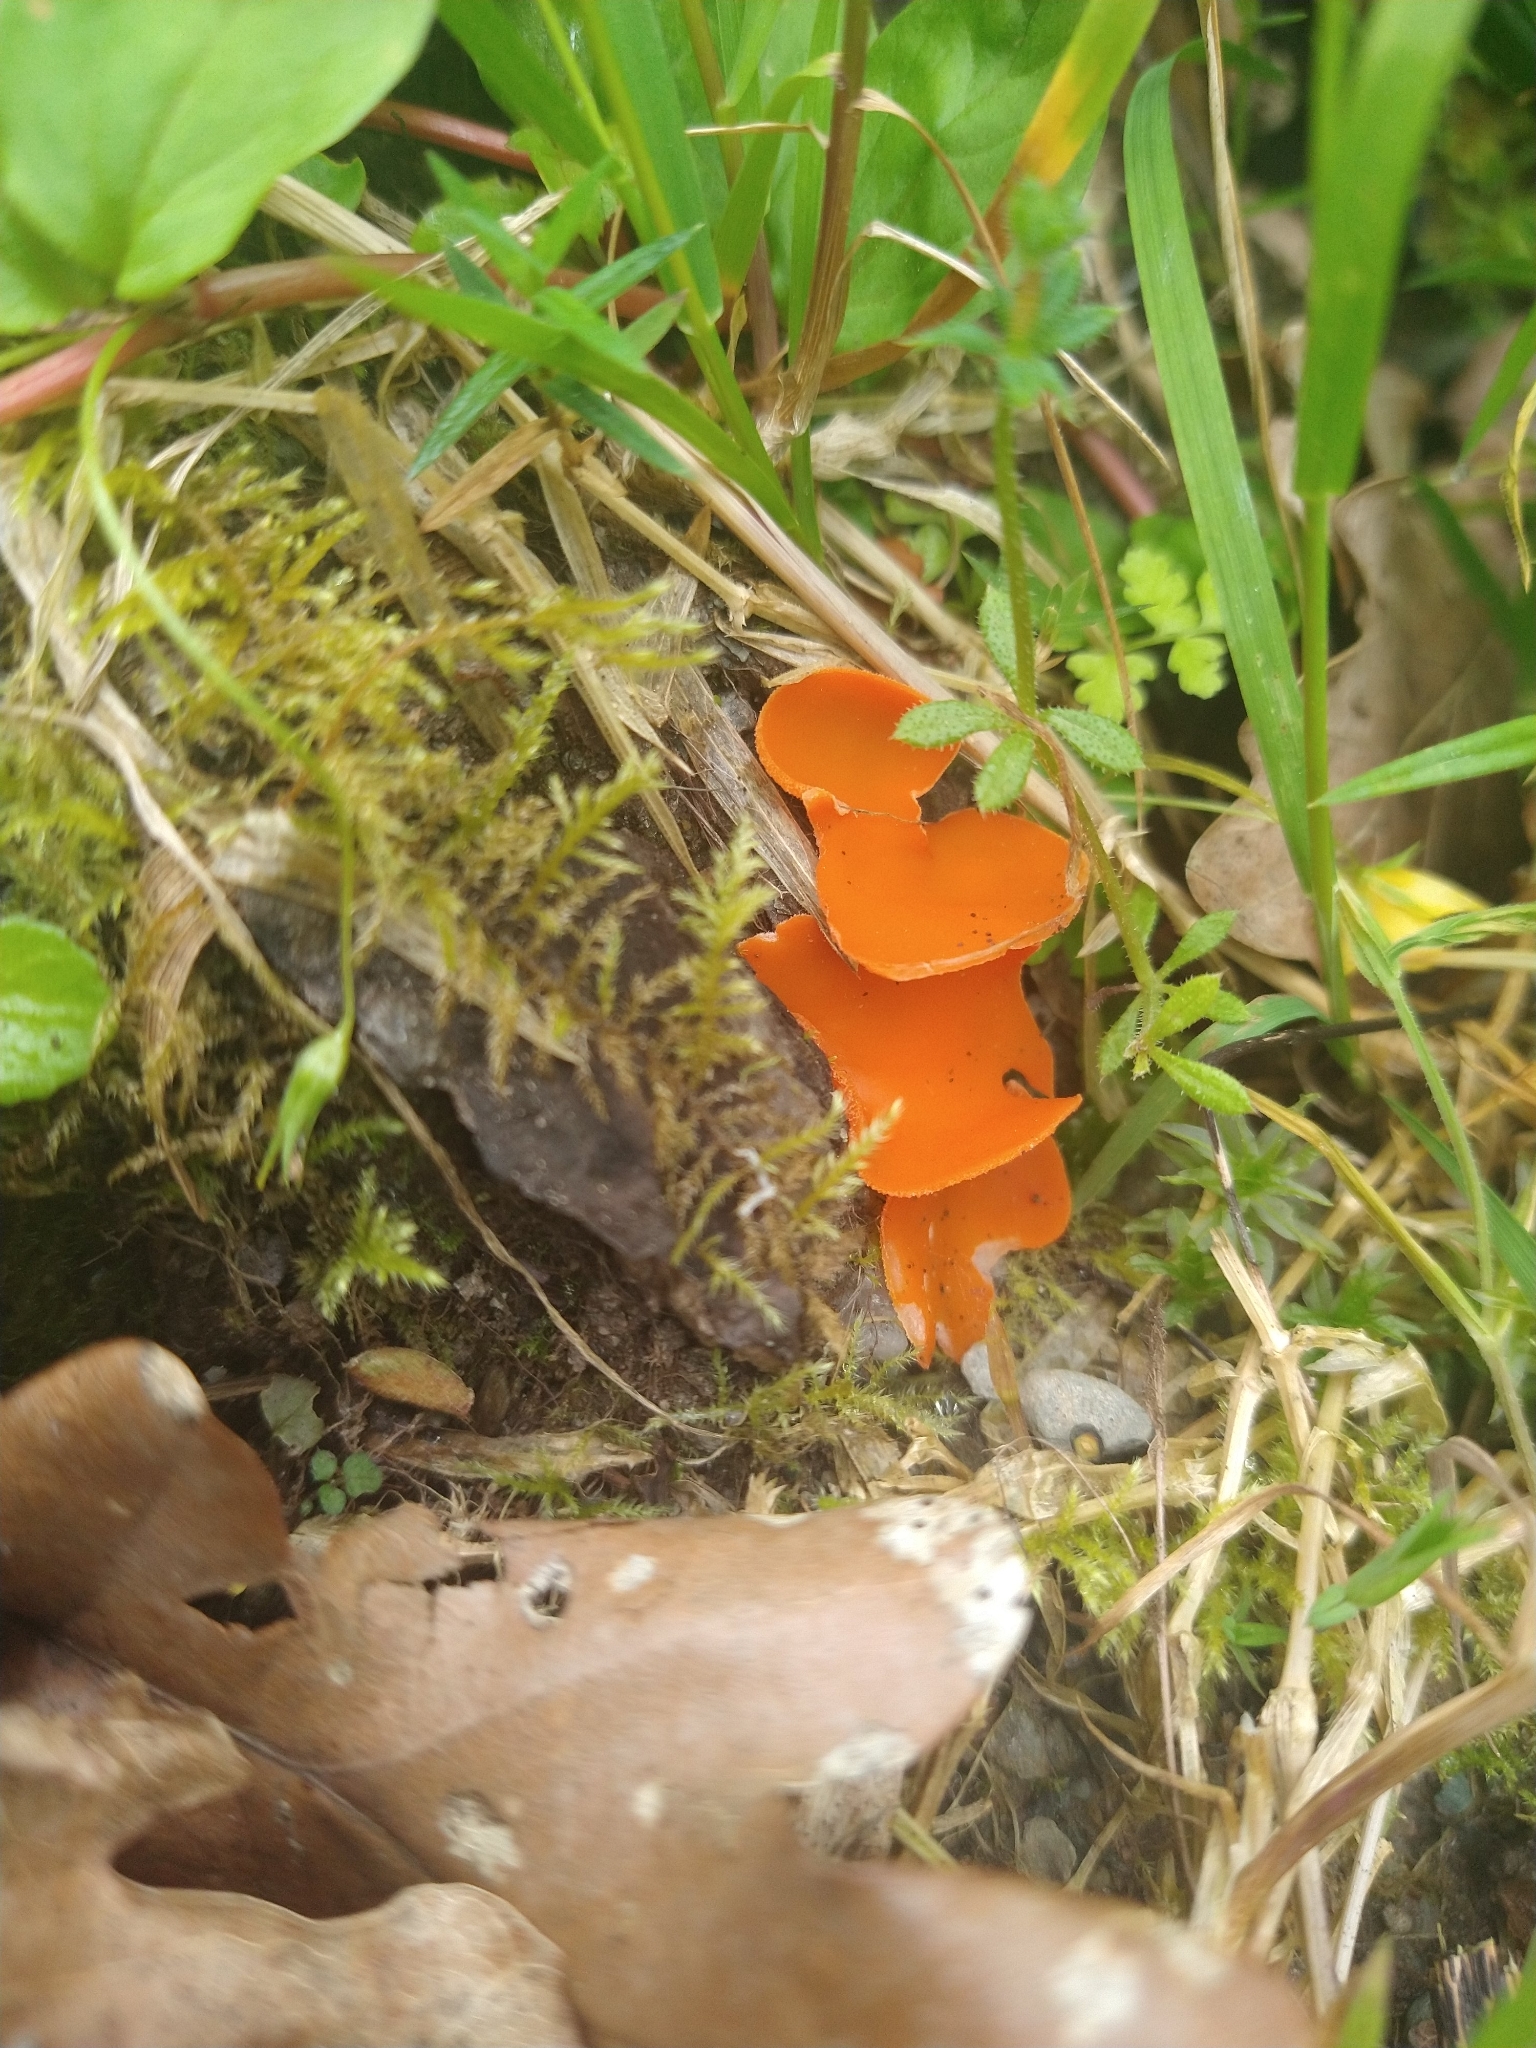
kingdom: Fungi
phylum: Ascomycota
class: Pezizomycetes
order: Pezizales
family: Pyronemataceae
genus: Aleuria
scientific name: Aleuria aurantia
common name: Orange peel fungus
